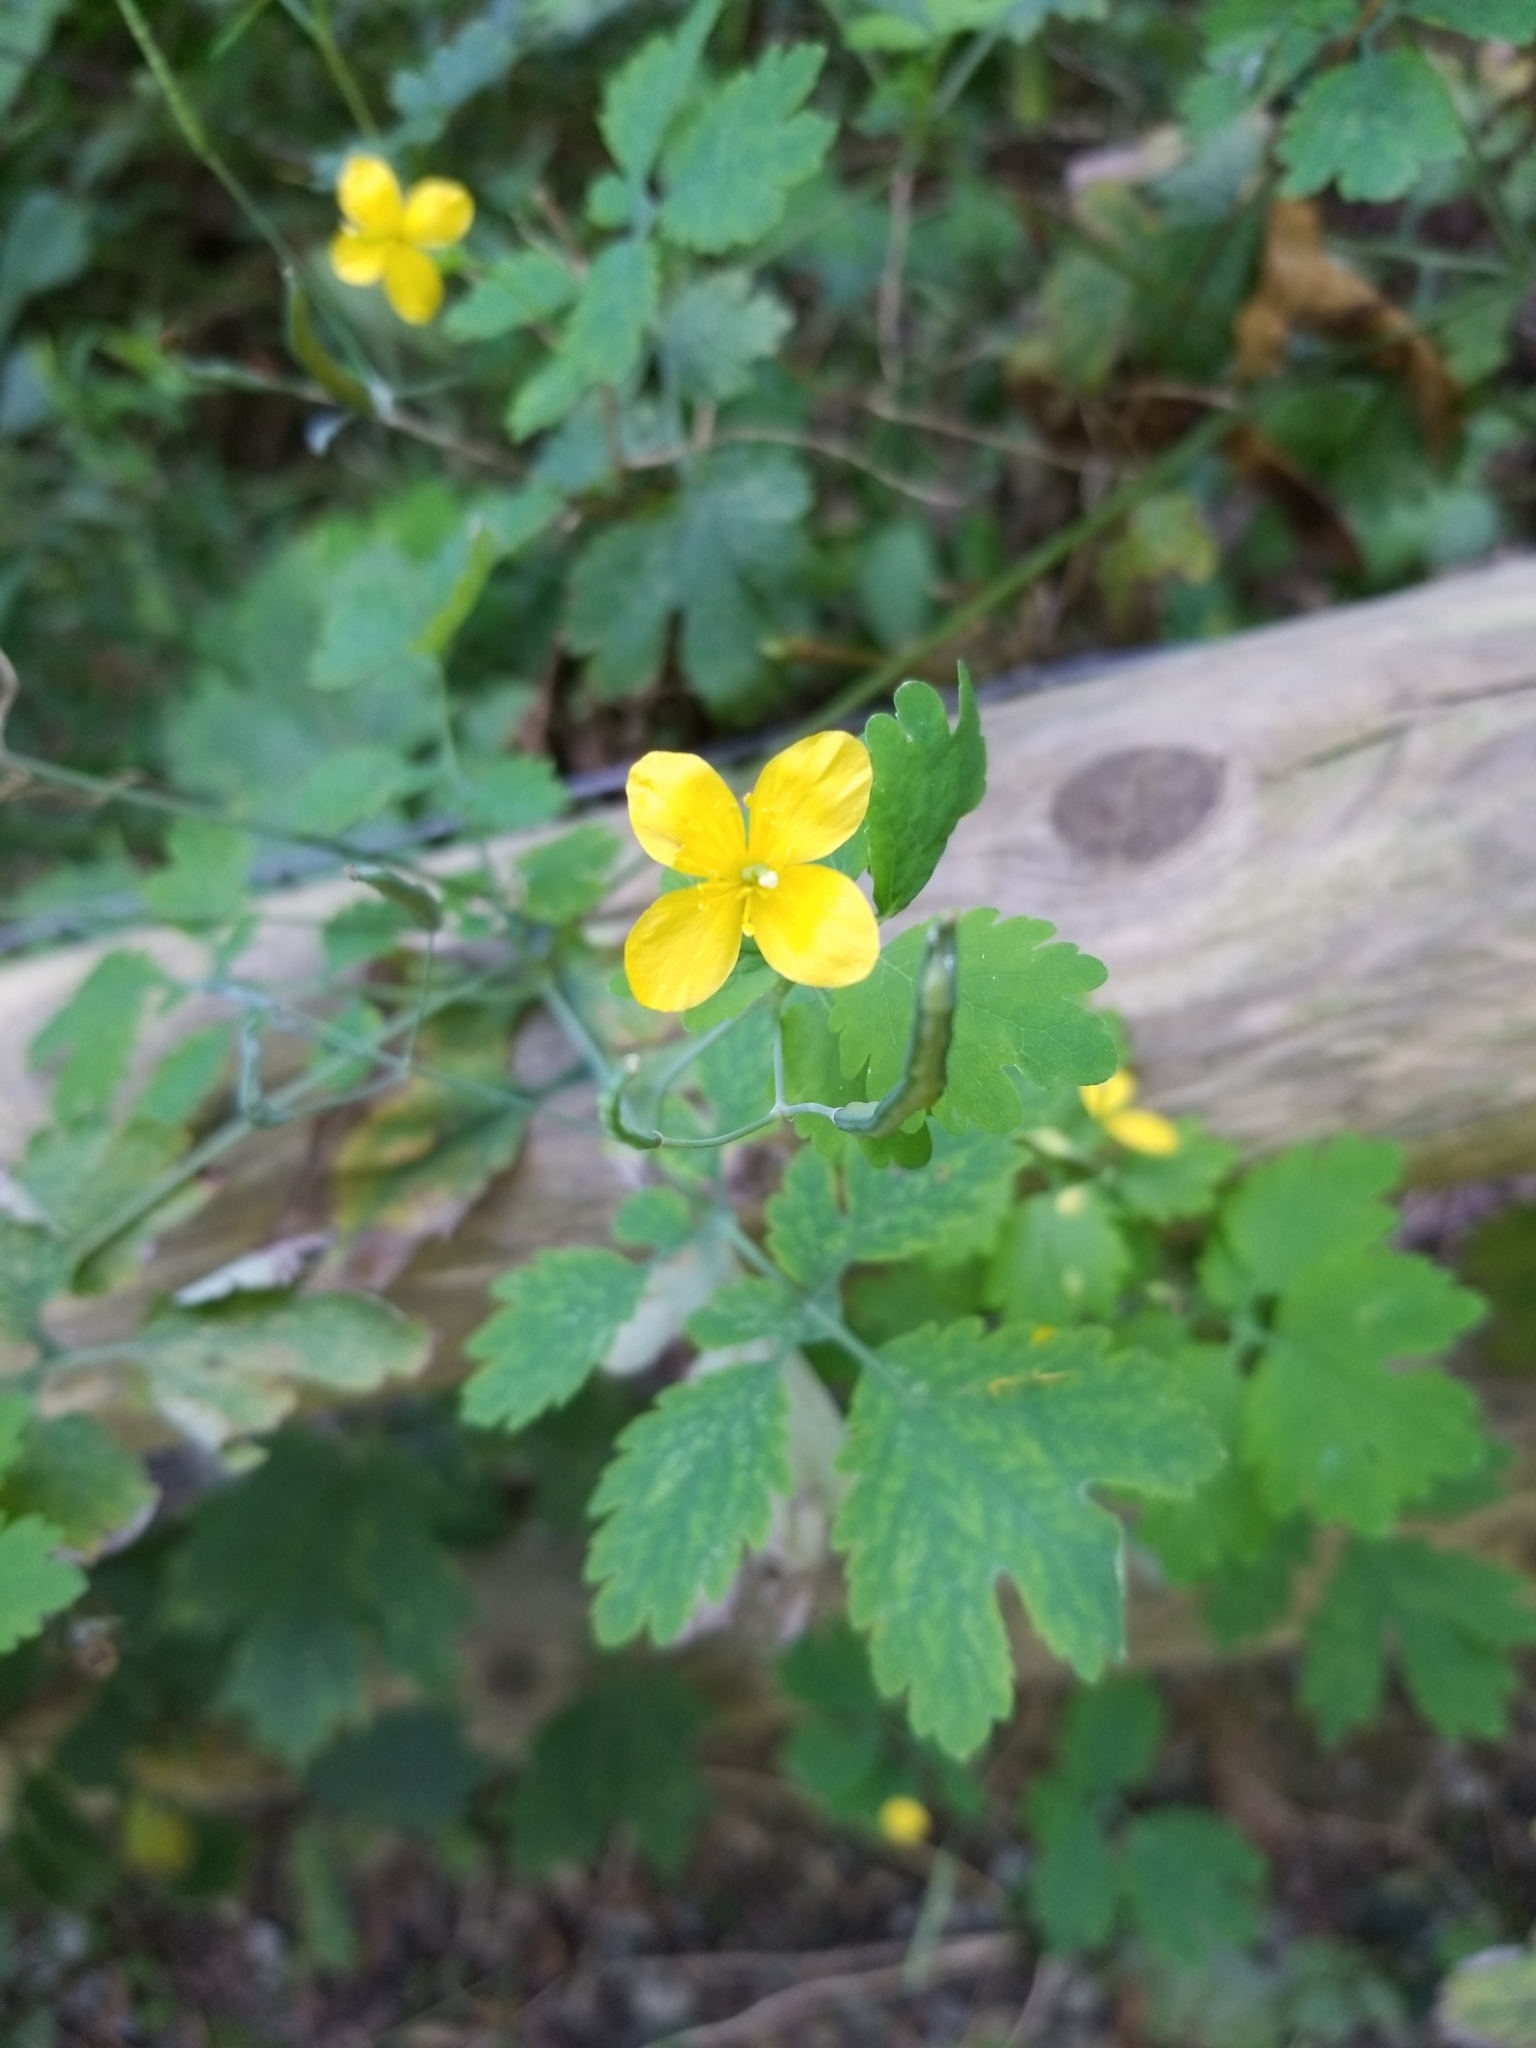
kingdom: Plantae
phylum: Tracheophyta
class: Magnoliopsida
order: Ranunculales
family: Papaveraceae
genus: Chelidonium
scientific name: Chelidonium majus
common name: Greater celandine
